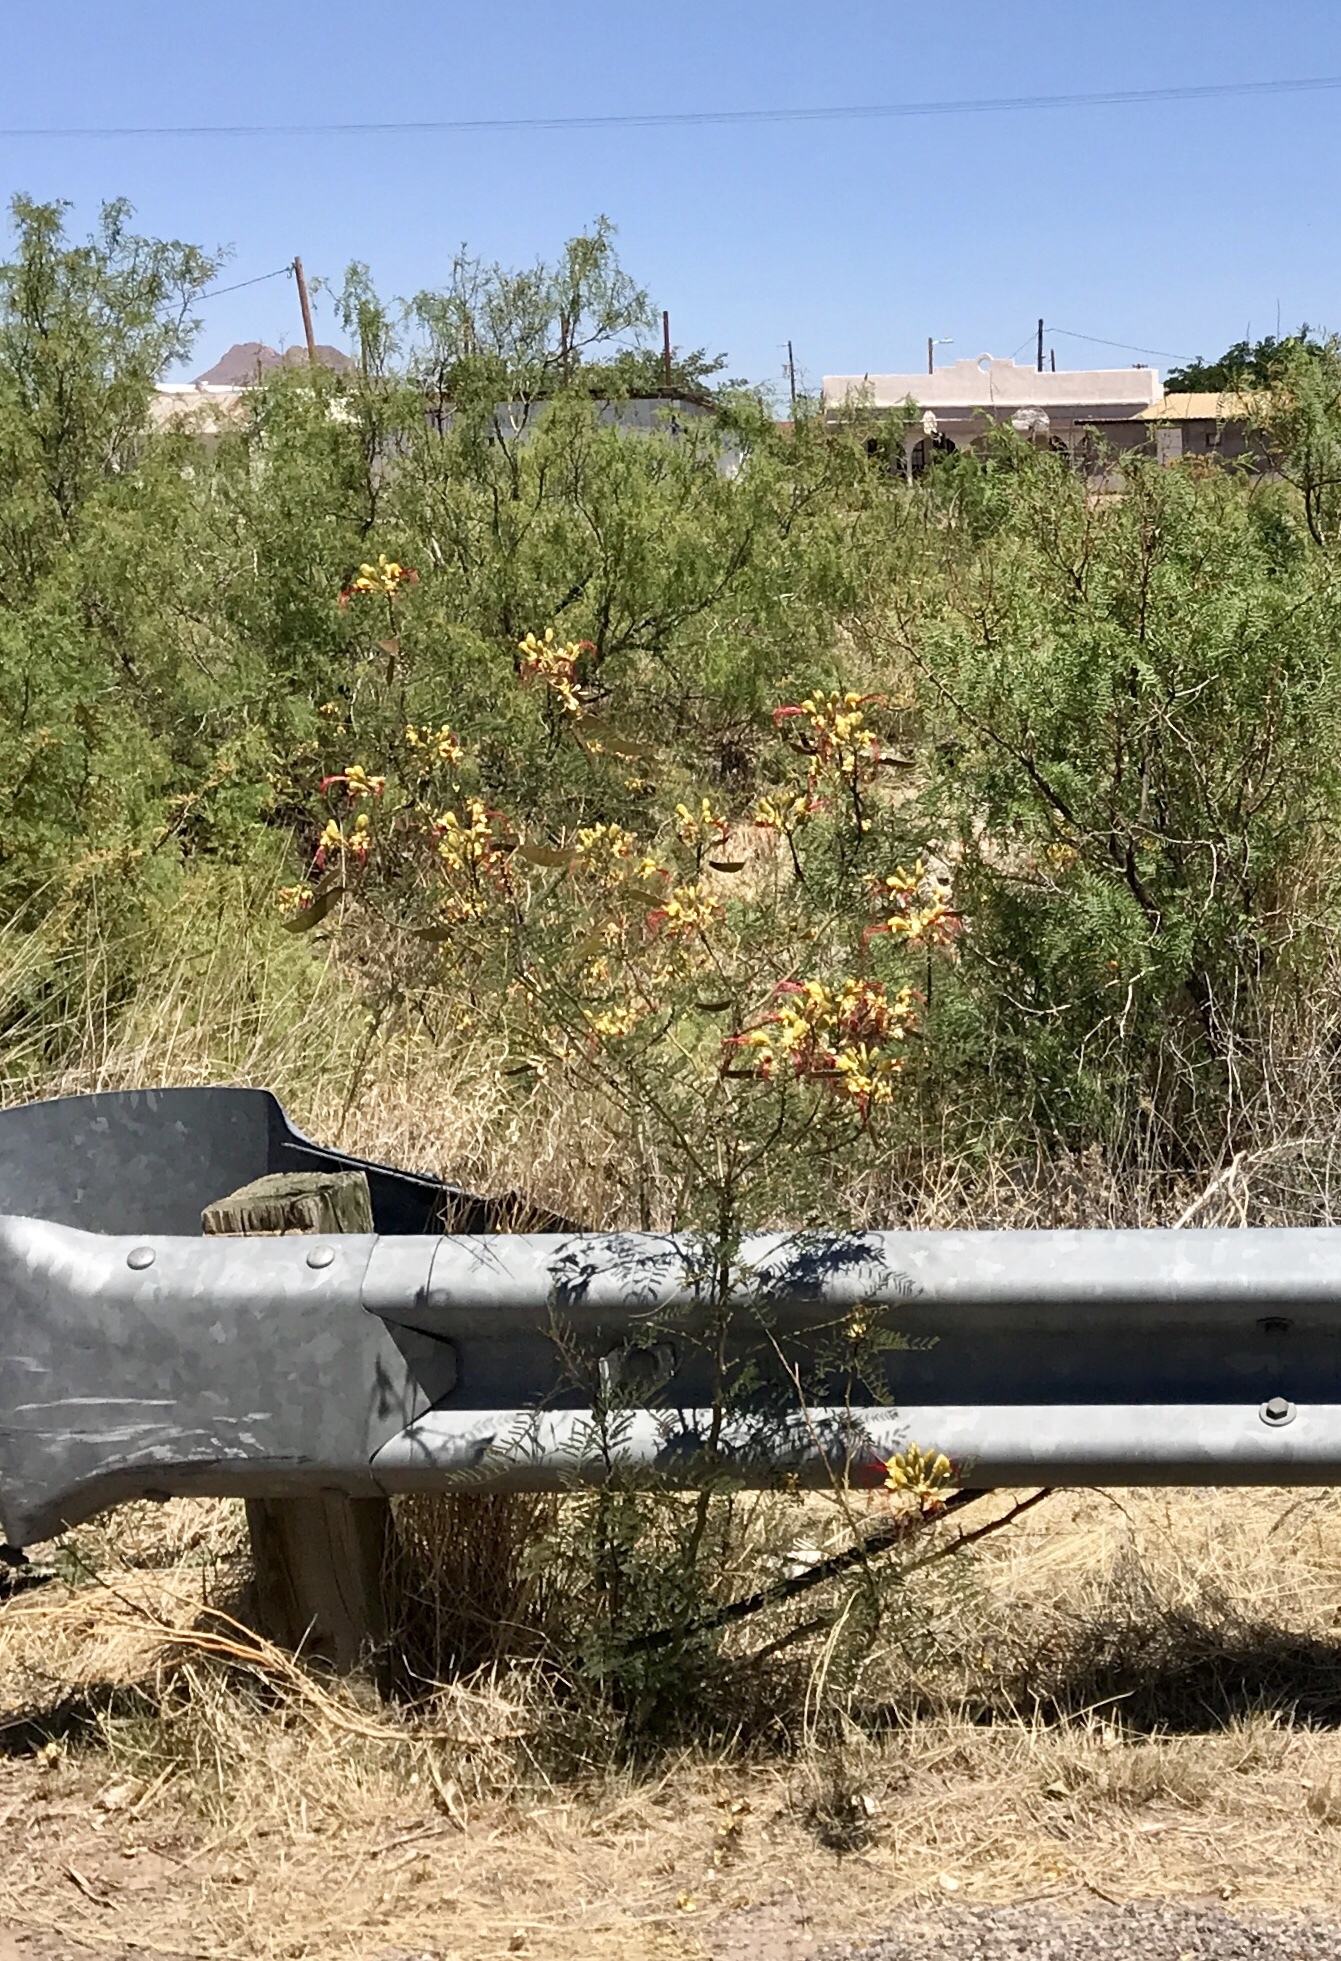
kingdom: Plantae
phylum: Tracheophyta
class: Magnoliopsida
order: Fabales
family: Fabaceae
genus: Erythrostemon
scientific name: Erythrostemon gilliesii
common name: Bird-of-paradise shrub
